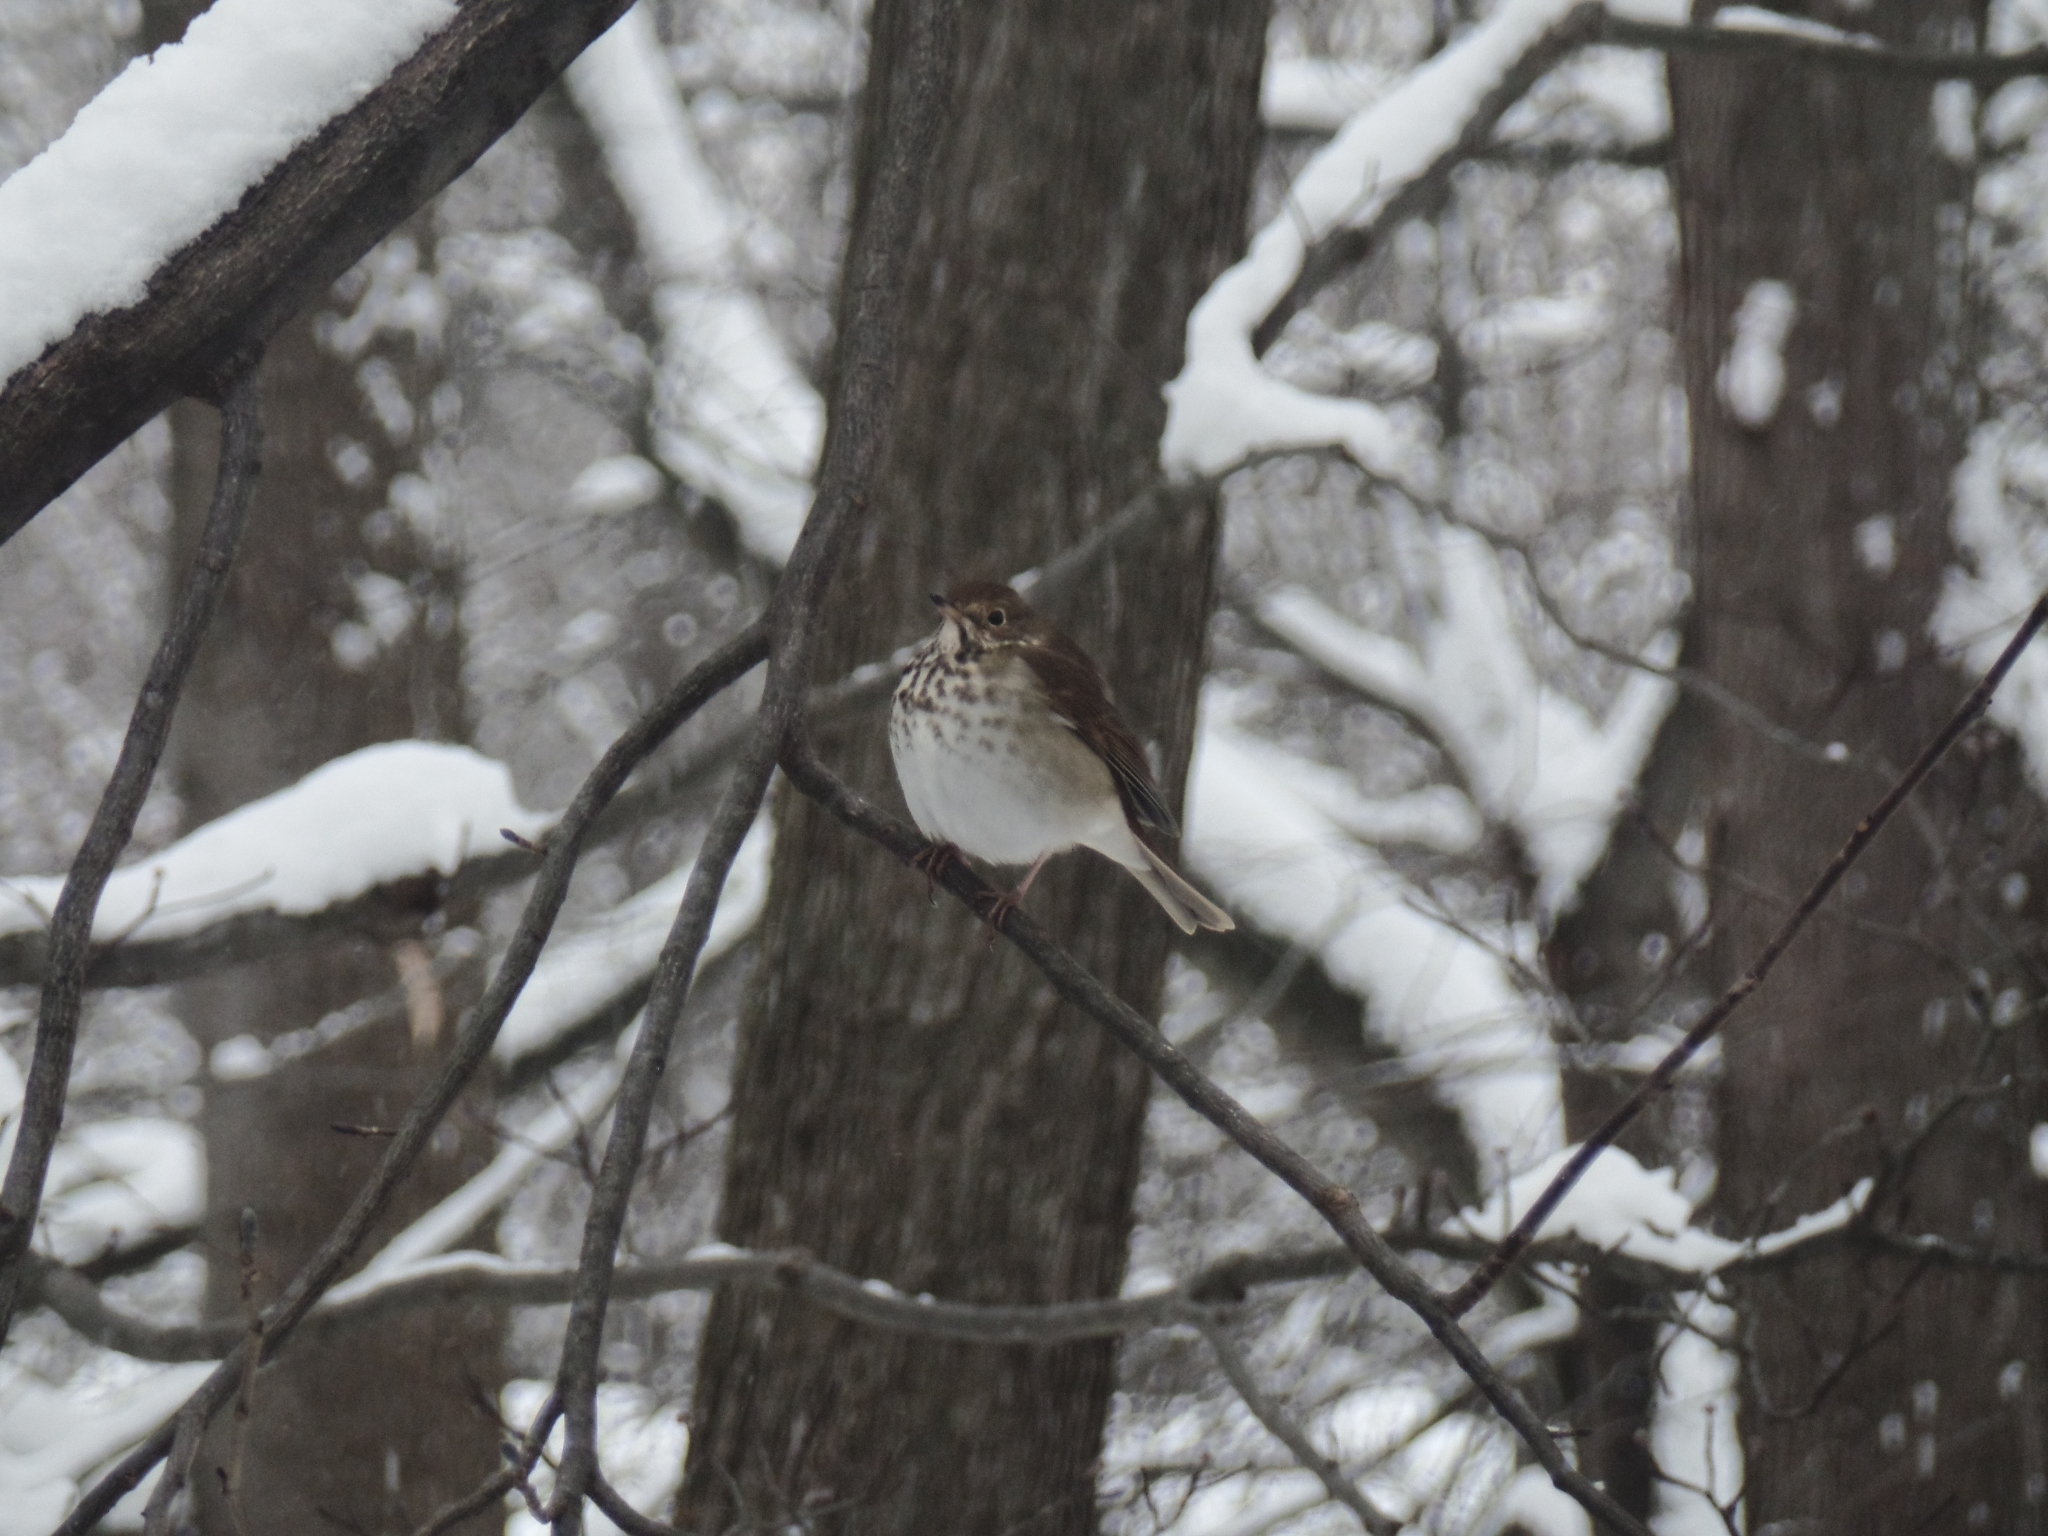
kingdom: Animalia
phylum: Chordata
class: Aves
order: Passeriformes
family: Turdidae
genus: Catharus
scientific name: Catharus guttatus
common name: Hermit thrush
